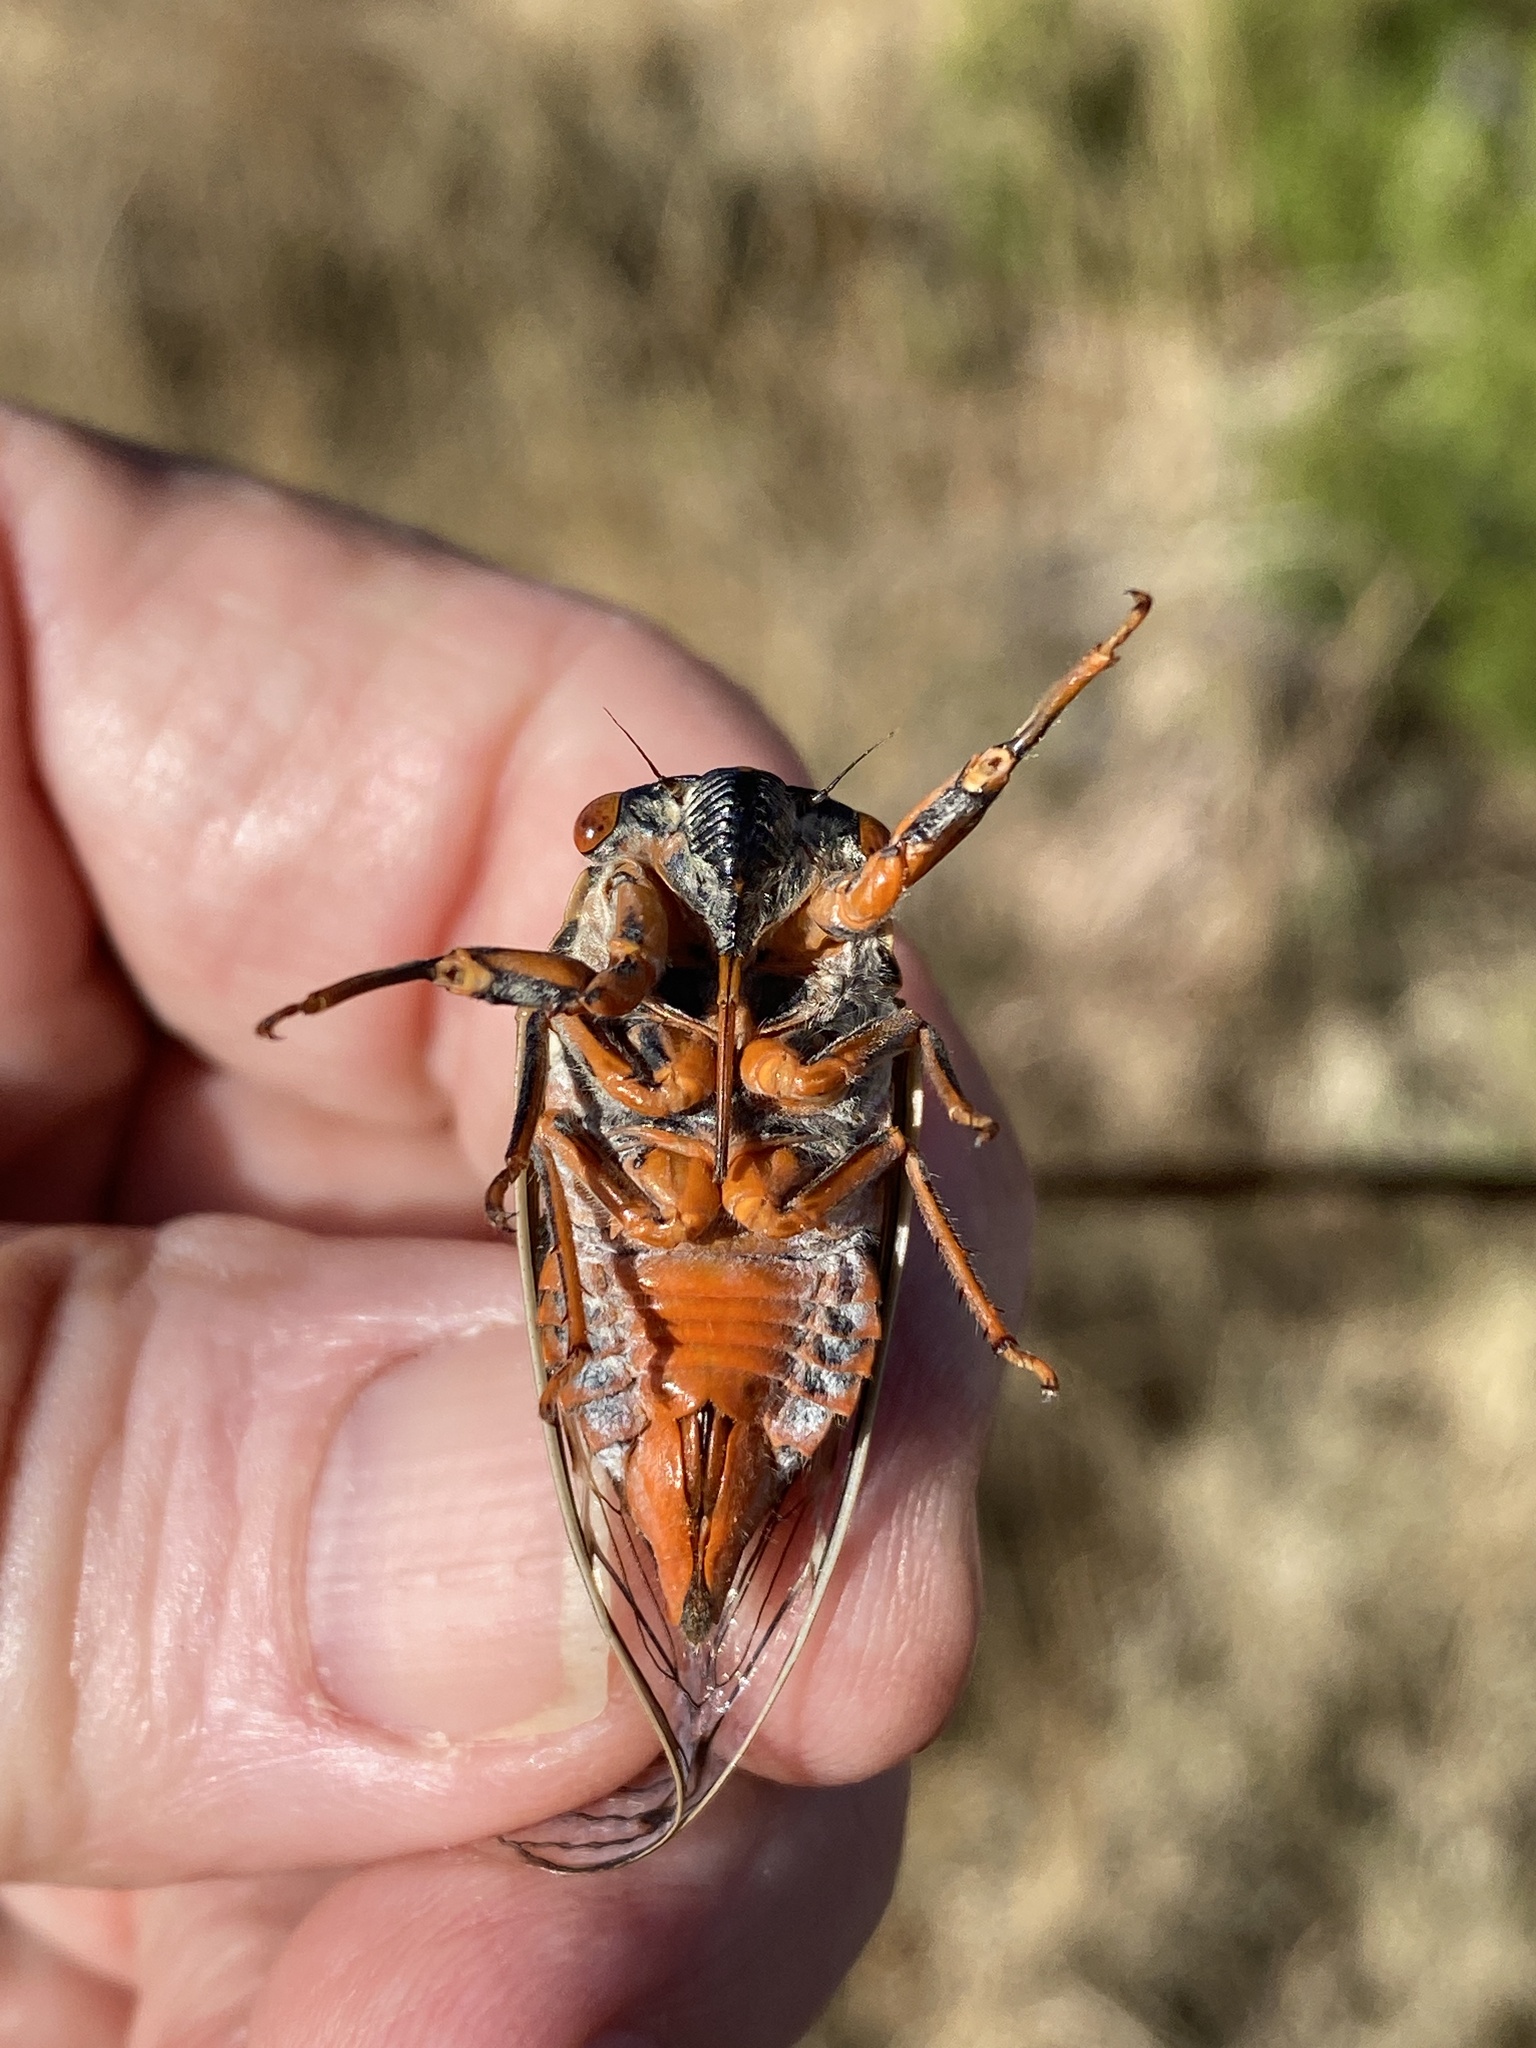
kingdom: Animalia
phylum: Arthropoda
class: Insecta
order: Hemiptera
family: Cicadidae
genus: Hadoa
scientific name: Hadoa duryi
